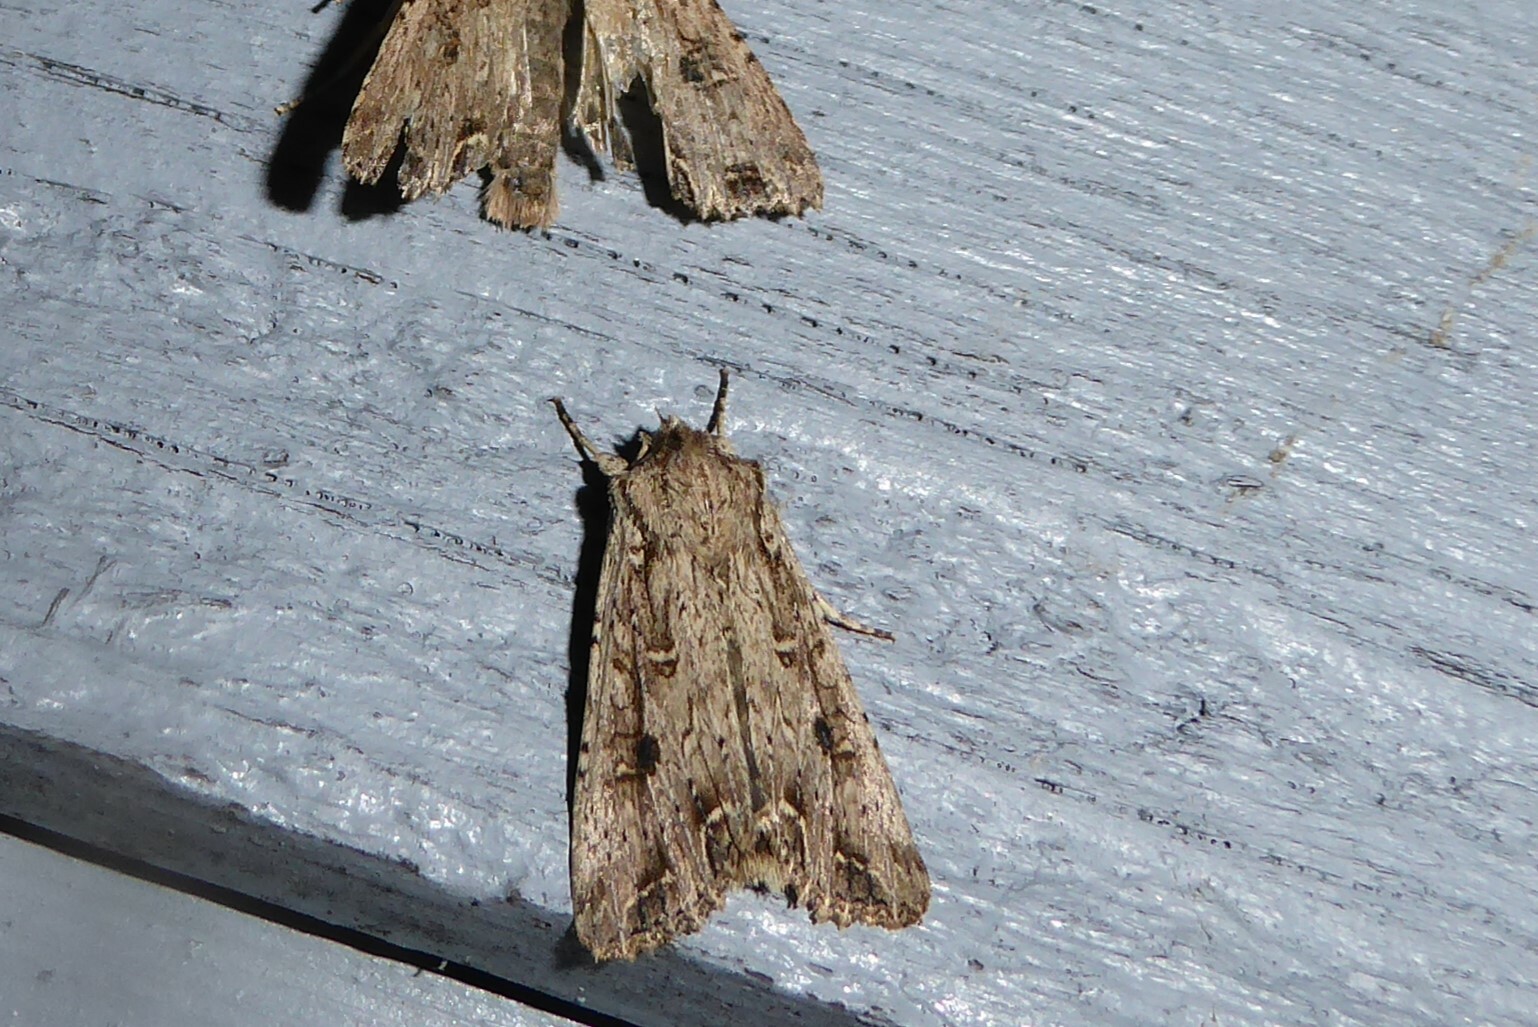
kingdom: Animalia
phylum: Arthropoda
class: Insecta
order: Lepidoptera
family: Noctuidae
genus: Ichneutica
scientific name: Ichneutica lignana
